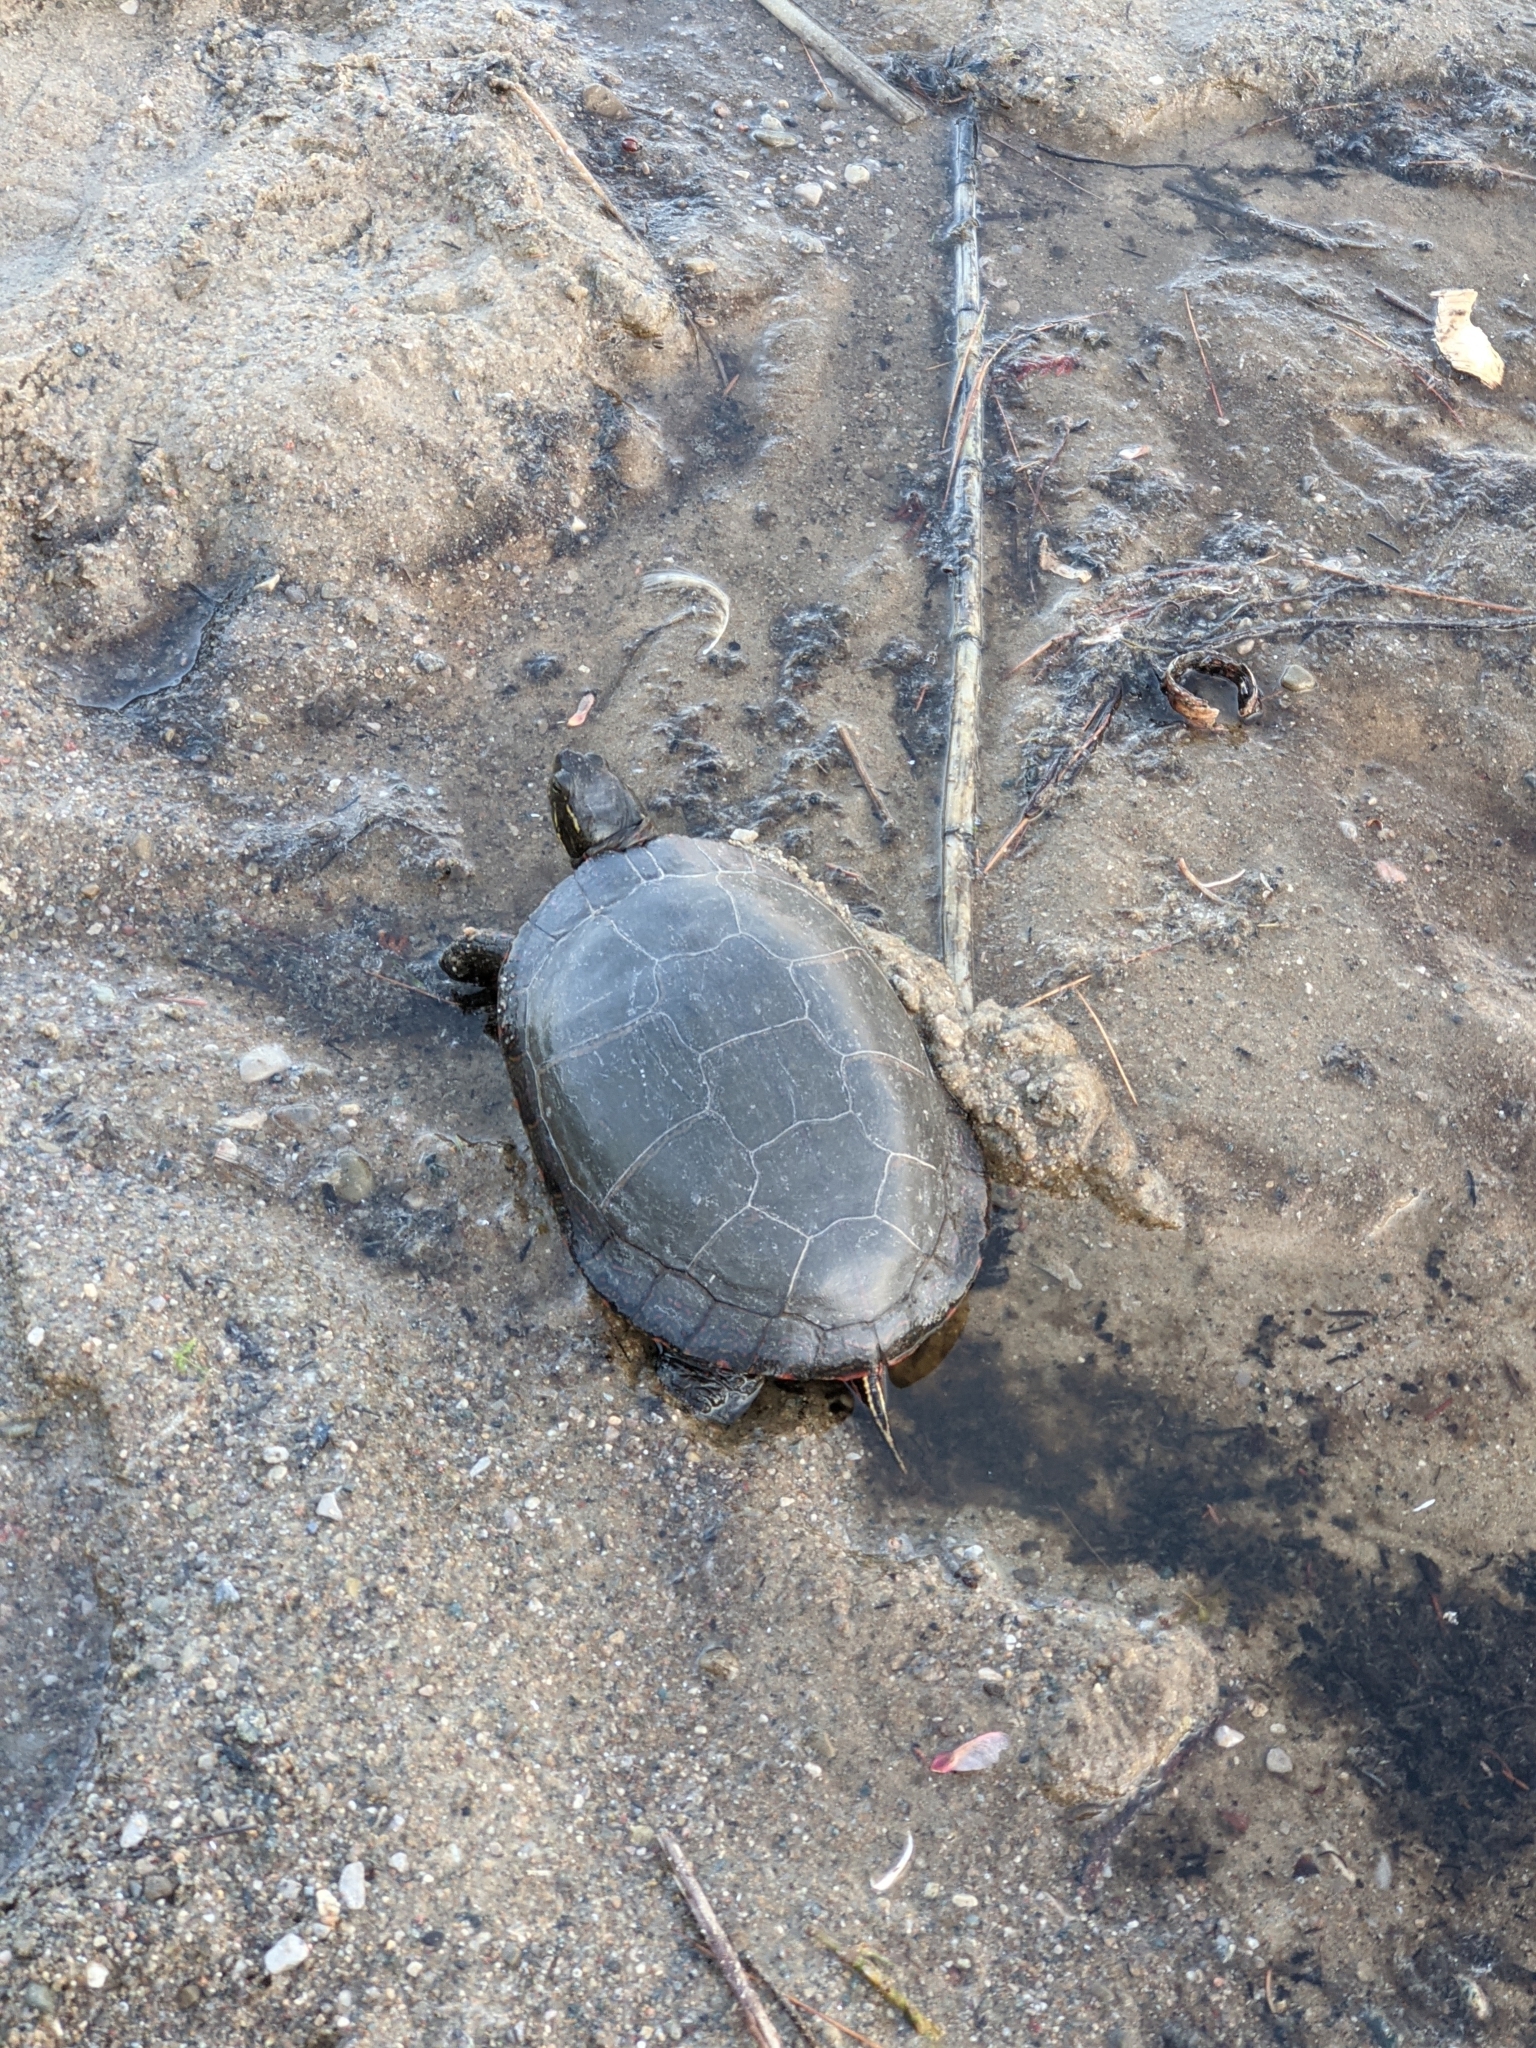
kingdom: Animalia
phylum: Chordata
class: Testudines
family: Emydidae
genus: Chrysemys
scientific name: Chrysemys picta
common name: Painted turtle
